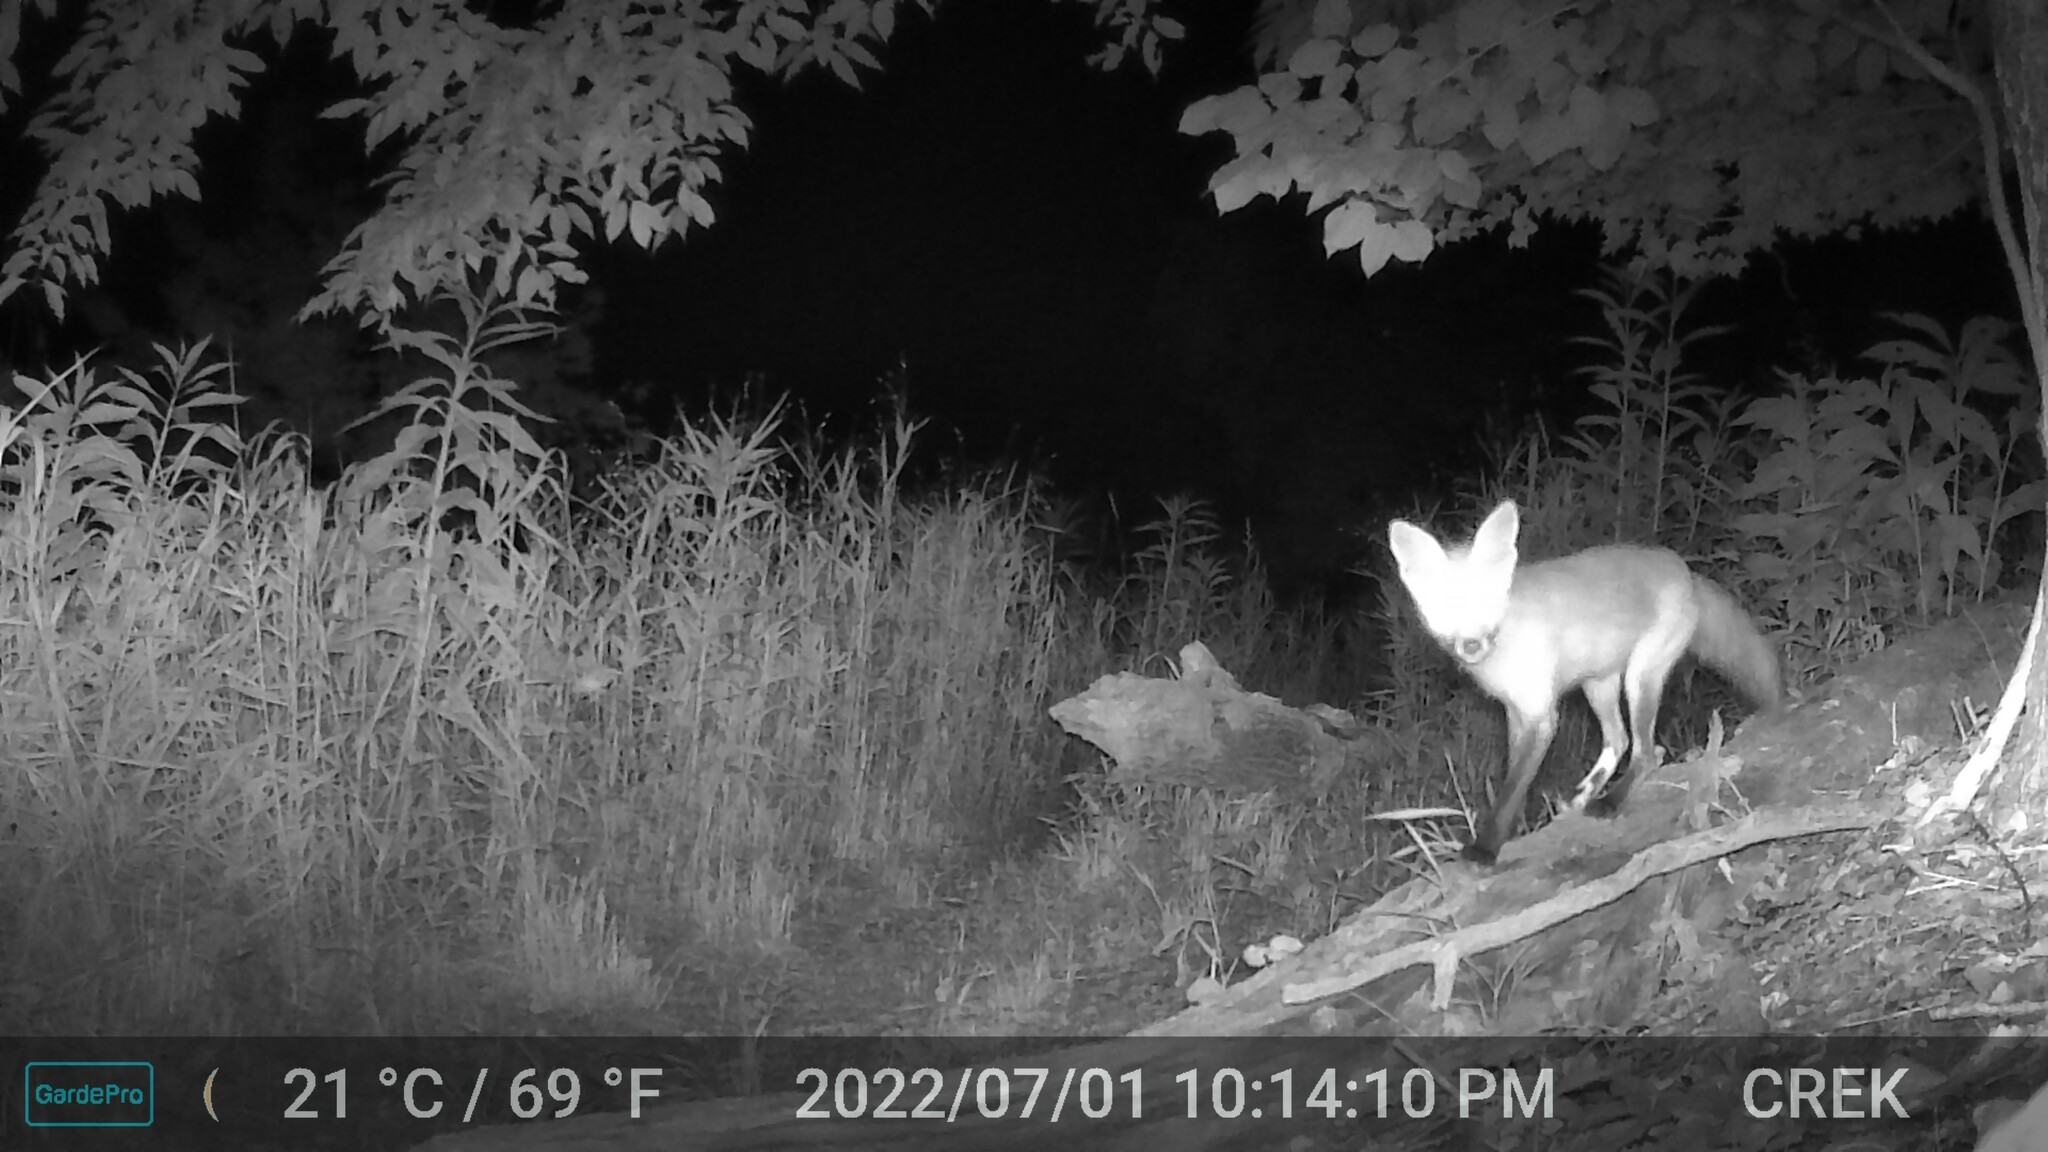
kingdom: Animalia
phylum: Chordata
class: Mammalia
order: Carnivora
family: Canidae
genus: Vulpes
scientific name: Vulpes vulpes
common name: Red fox
